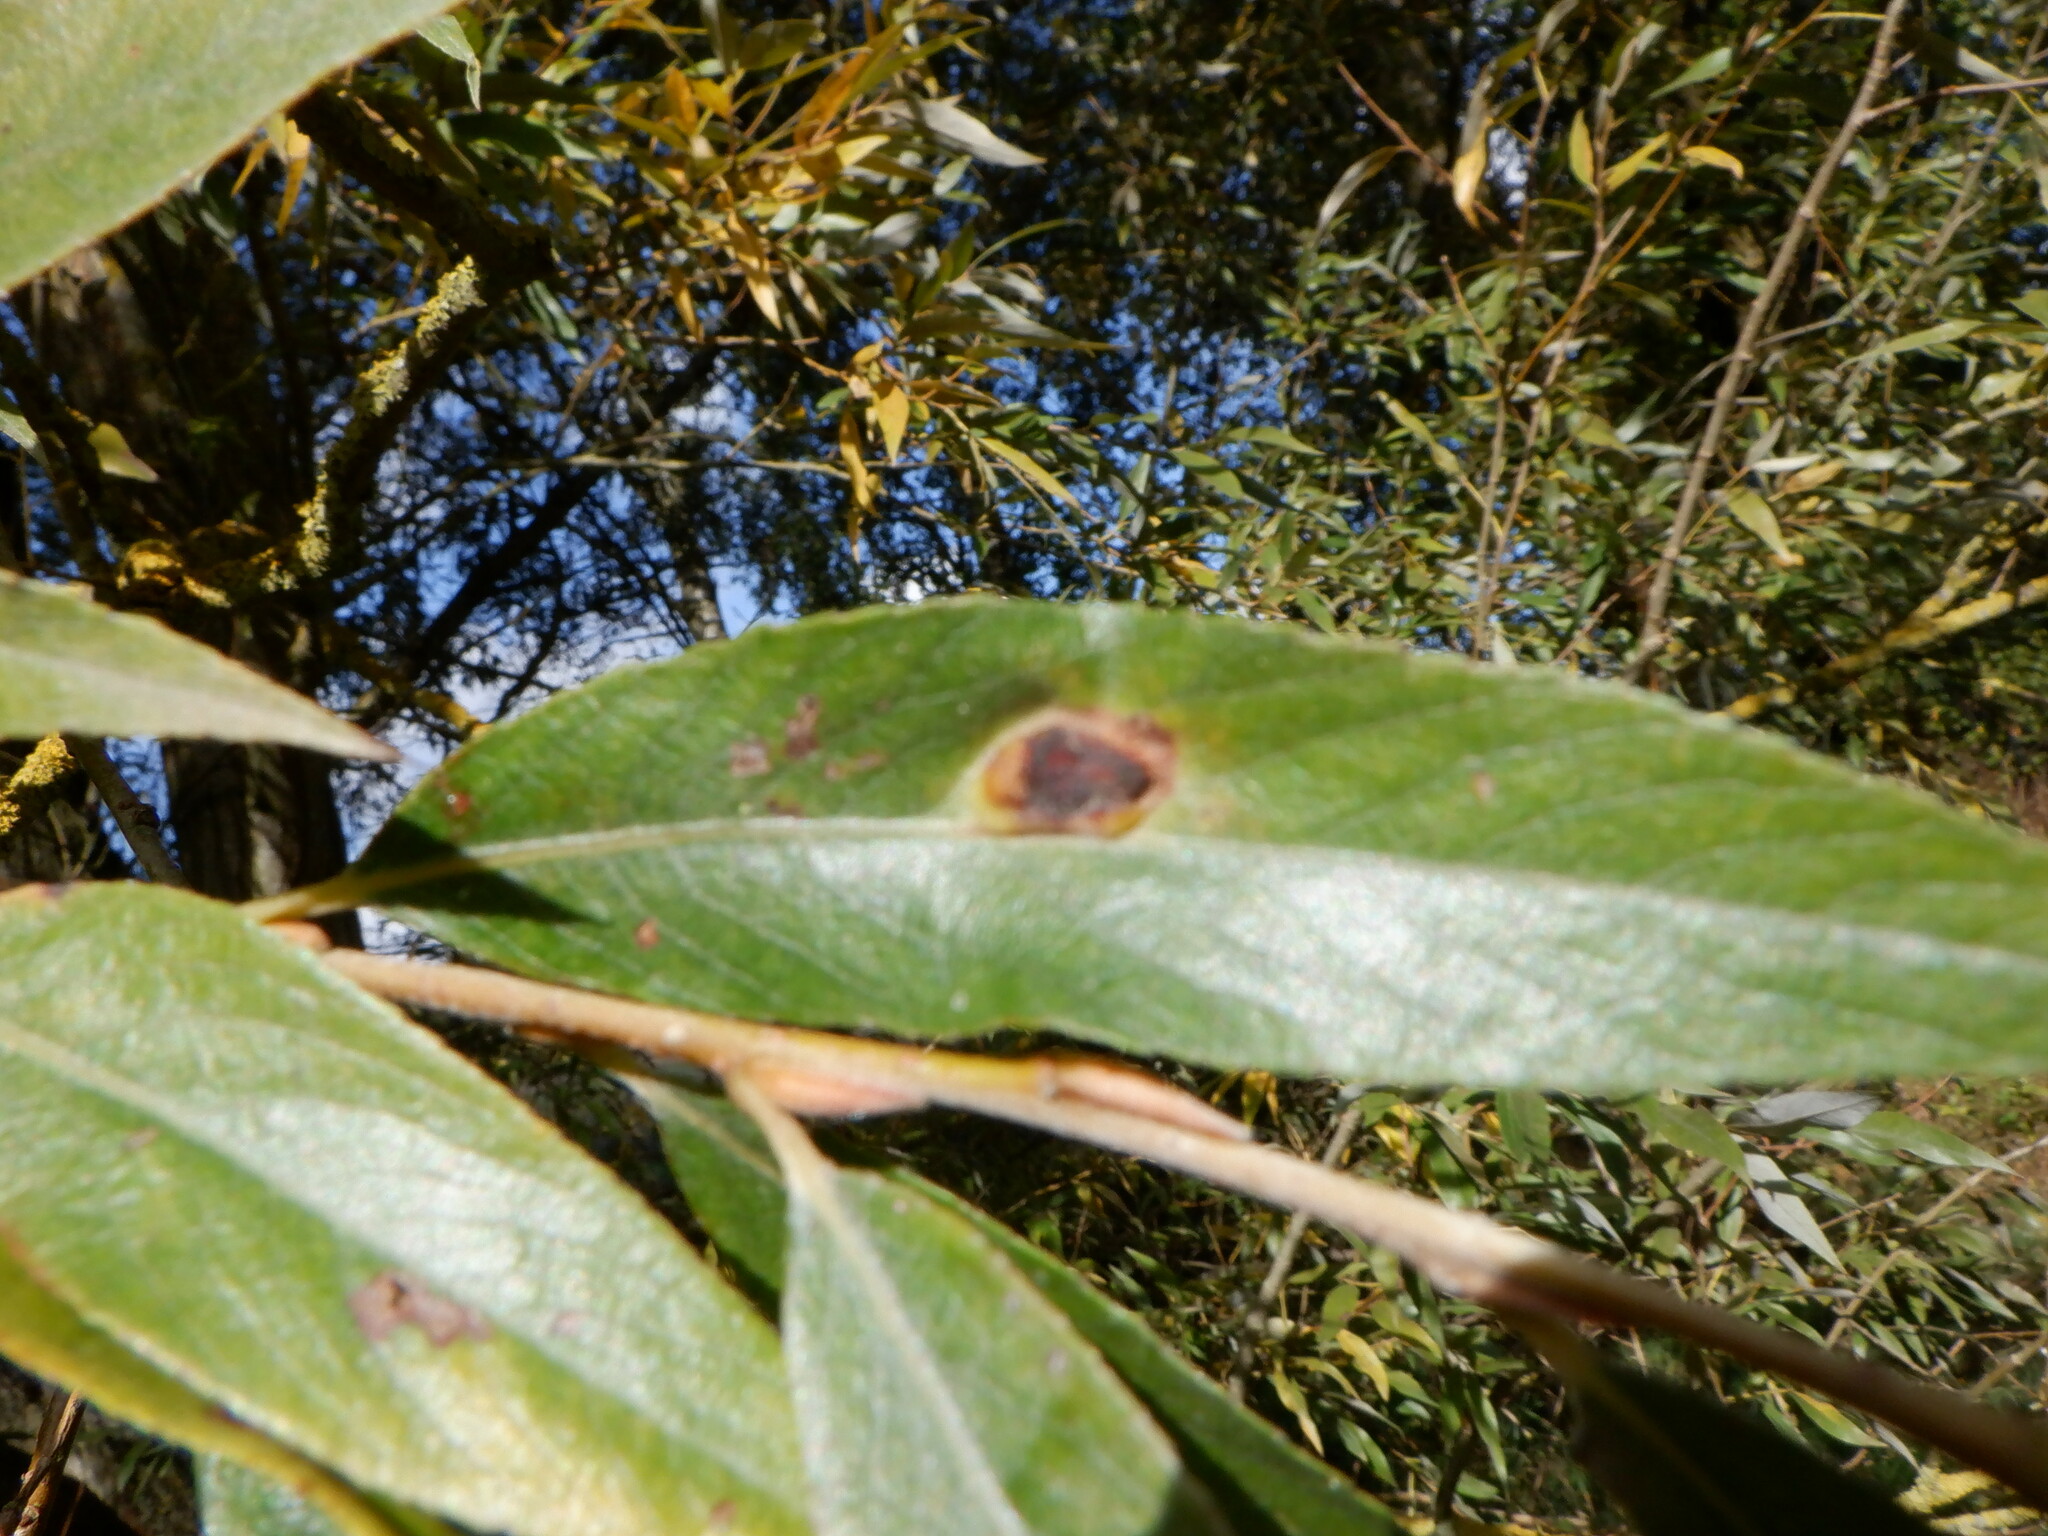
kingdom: Animalia
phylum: Arthropoda
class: Insecta
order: Hymenoptera
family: Tenthredinidae
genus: Pontania
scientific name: Pontania proxima
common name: Common sawfly
